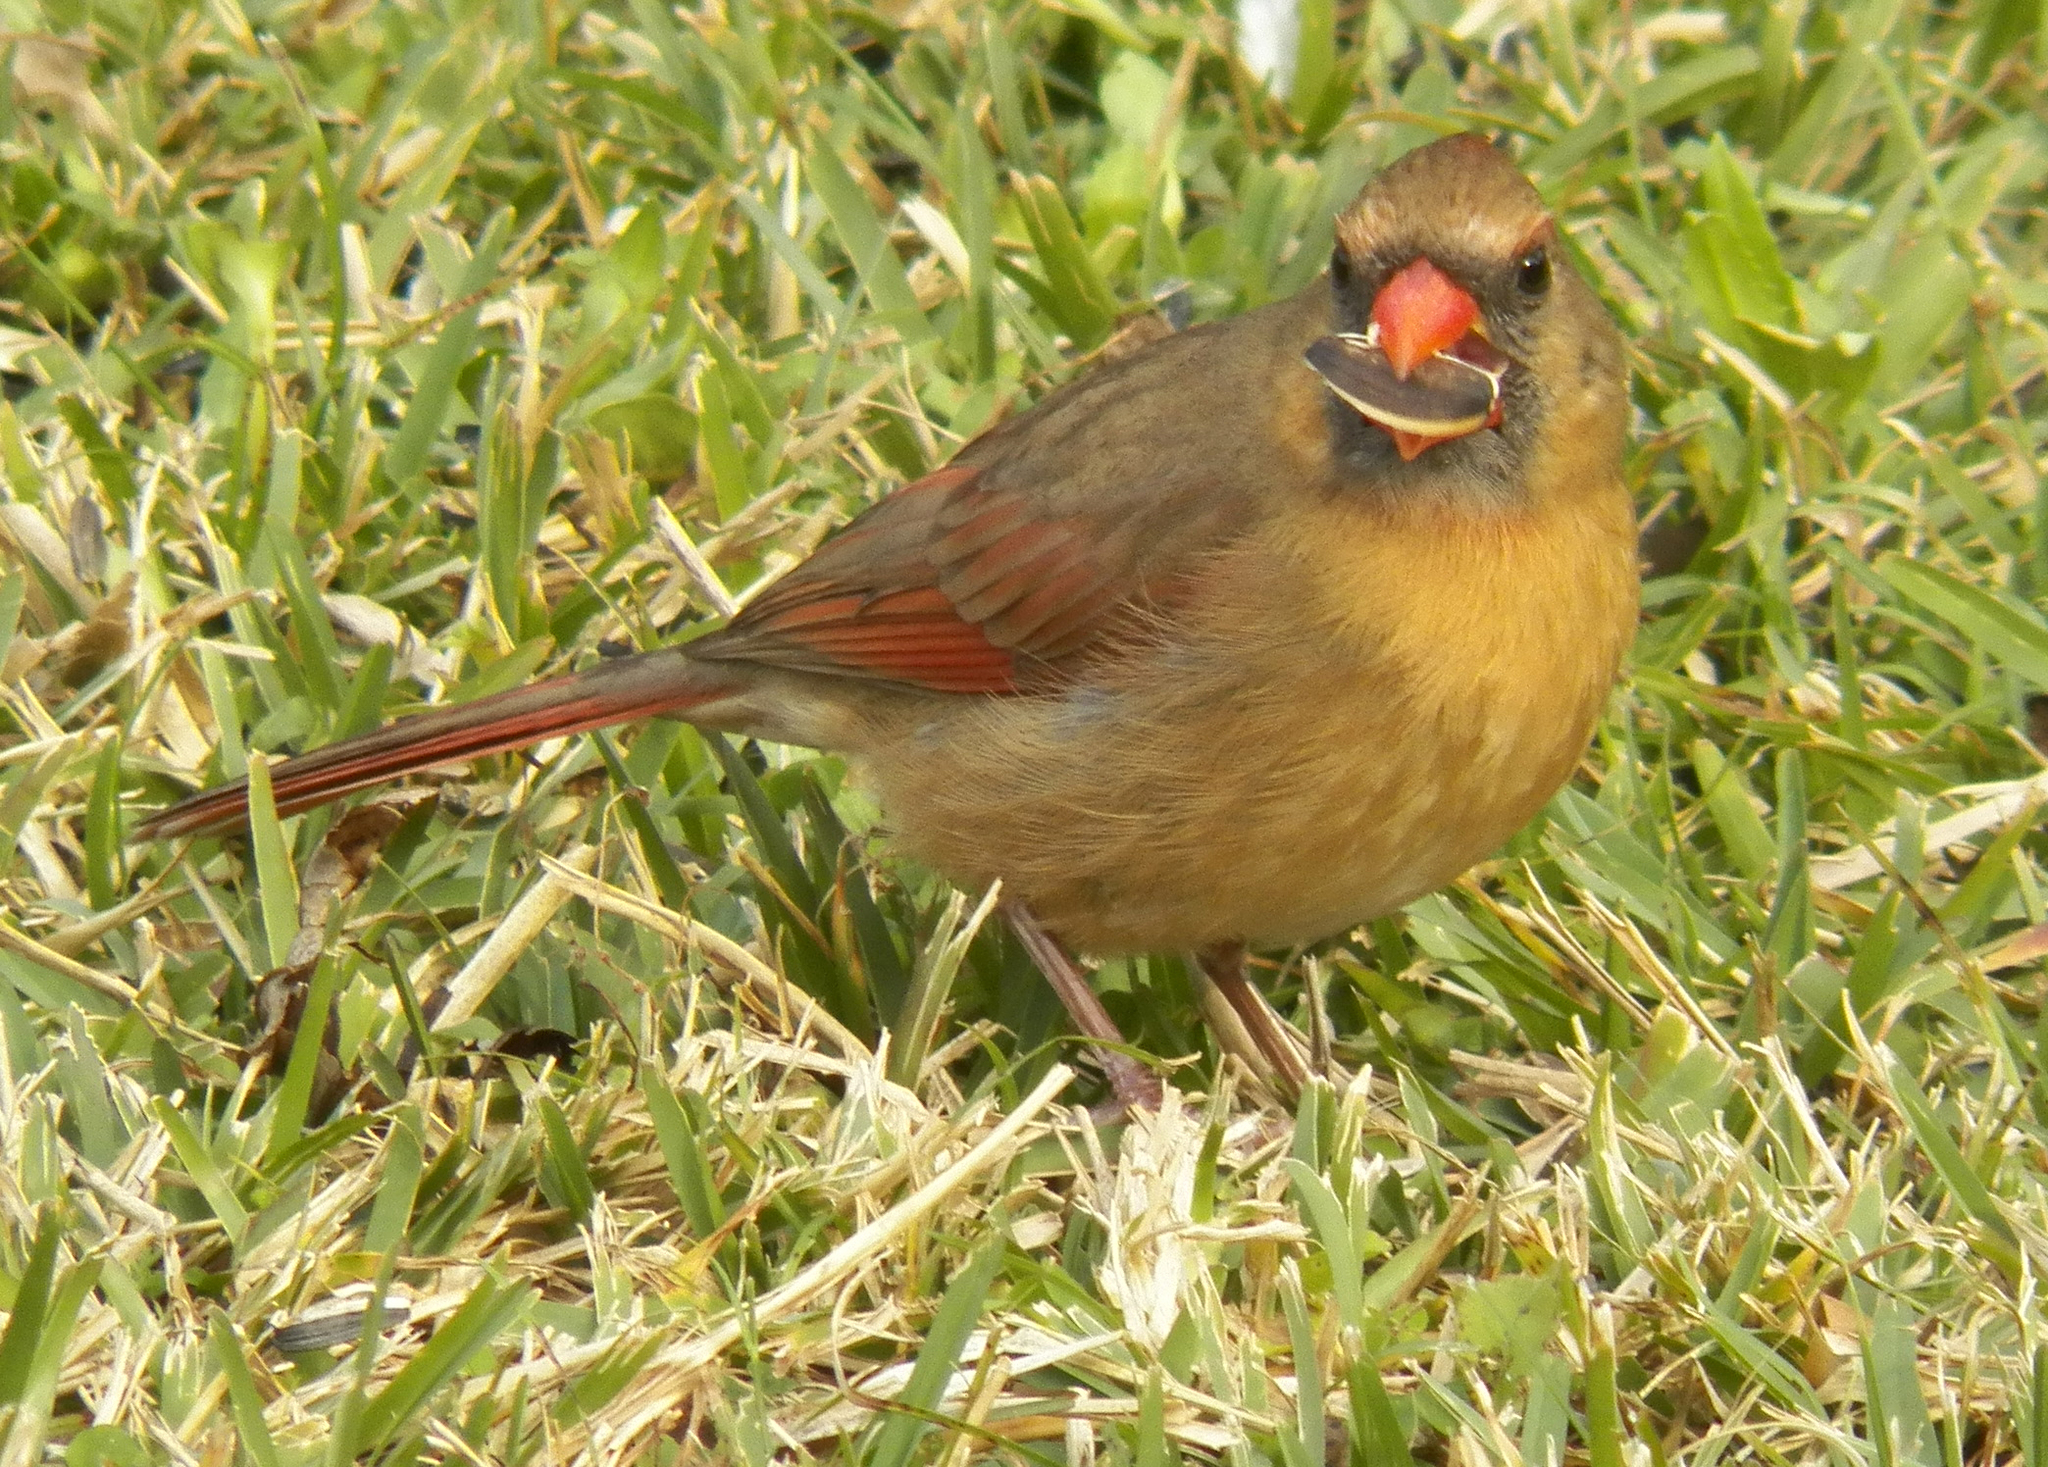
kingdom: Animalia
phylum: Chordata
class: Aves
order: Passeriformes
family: Cardinalidae
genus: Cardinalis
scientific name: Cardinalis cardinalis
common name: Northern cardinal
